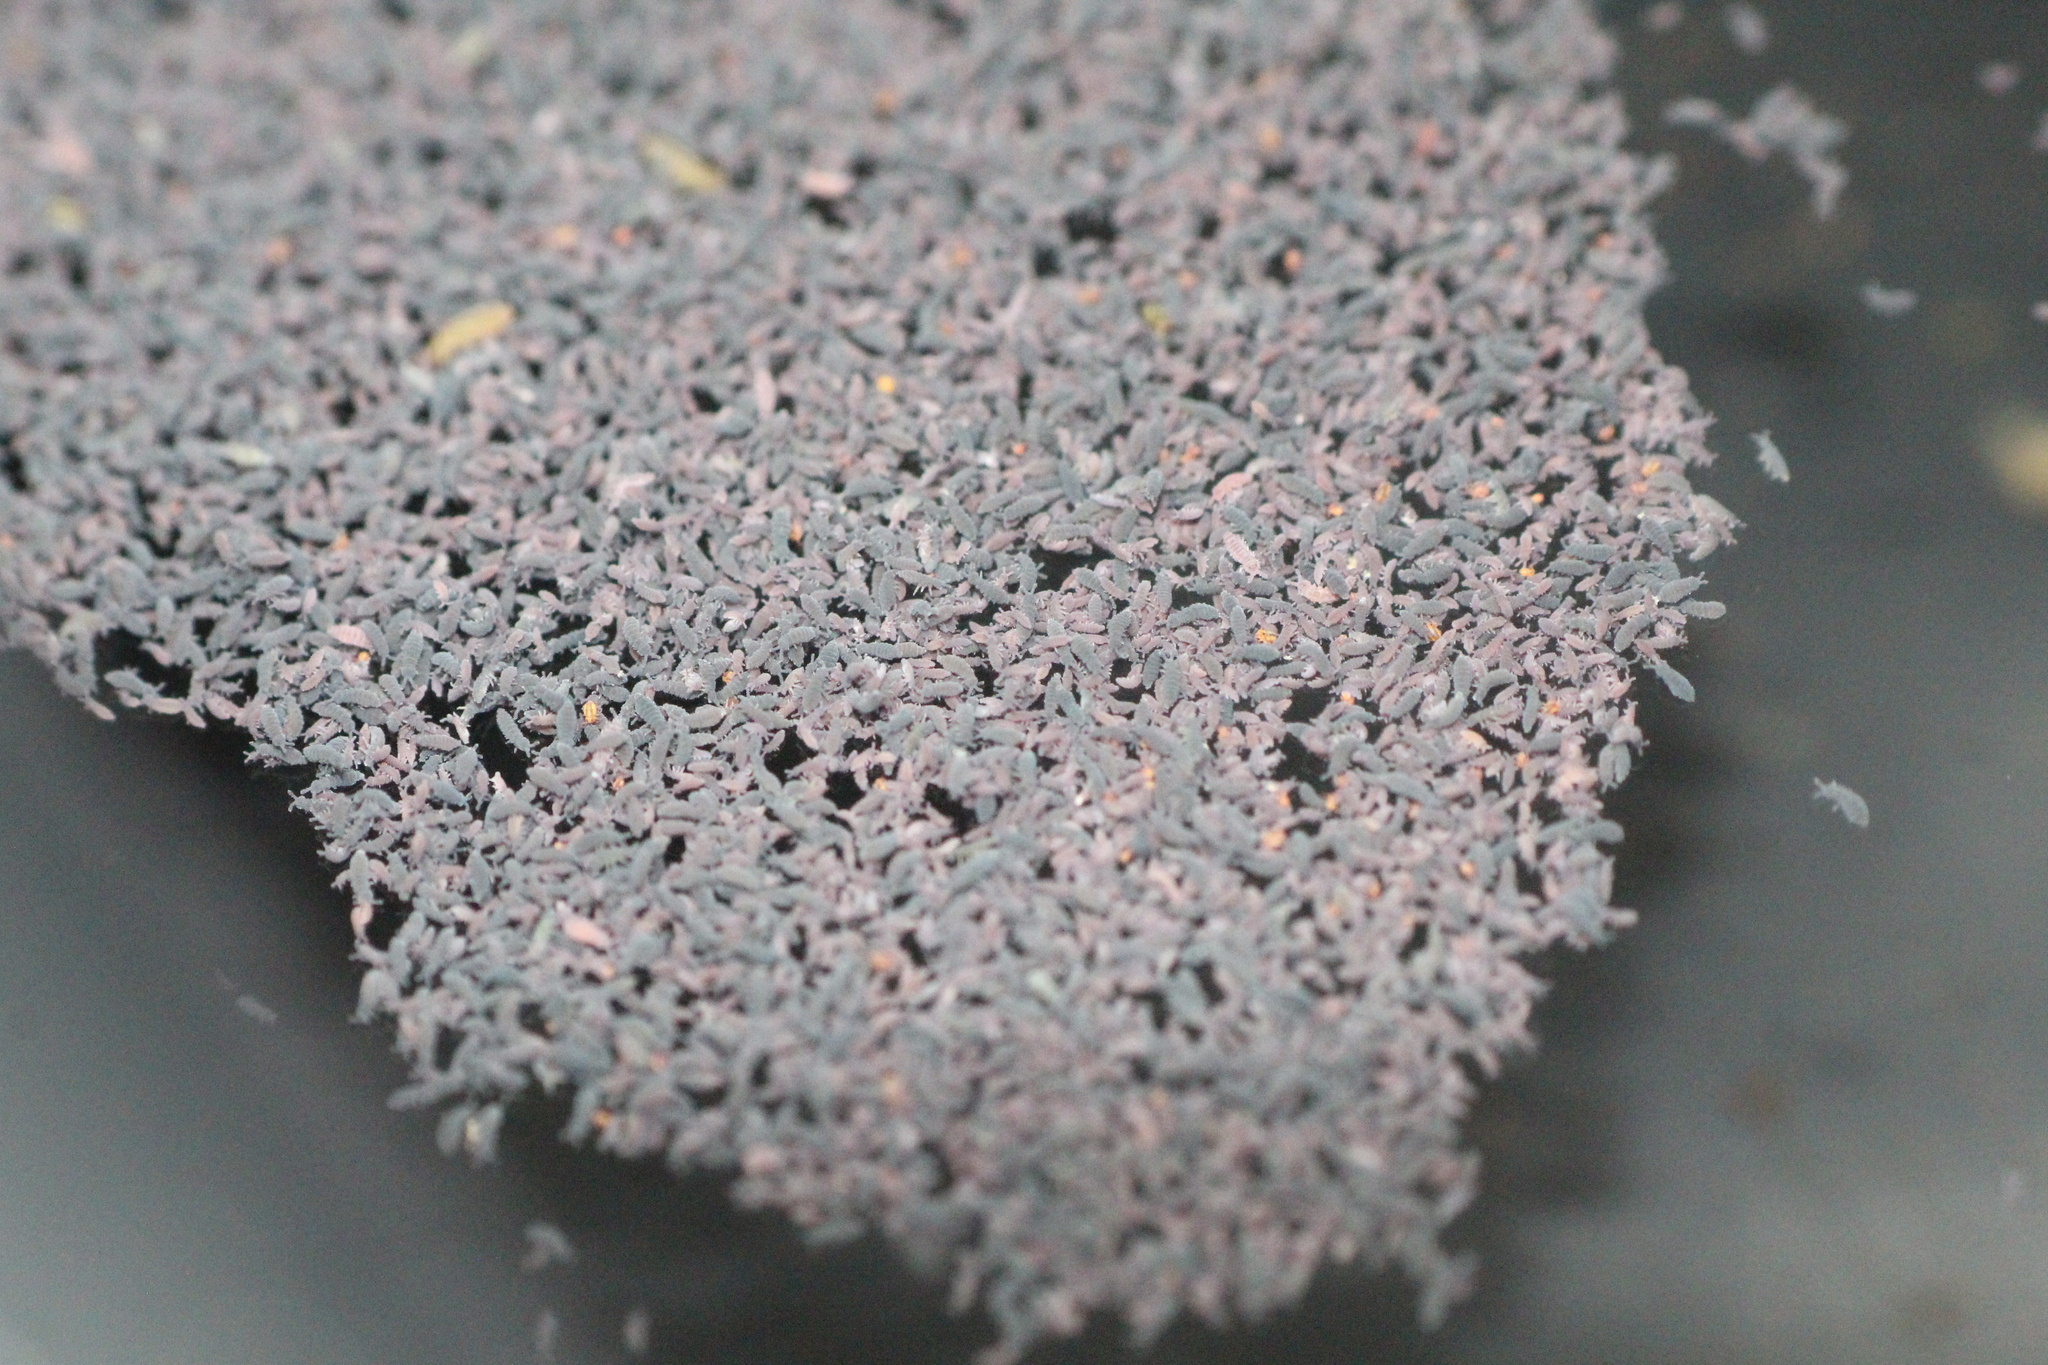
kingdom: Animalia
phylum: Arthropoda
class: Collembola
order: Poduromorpha
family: Poduridae
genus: Podura
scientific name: Podura aquatica
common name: Water springtail
